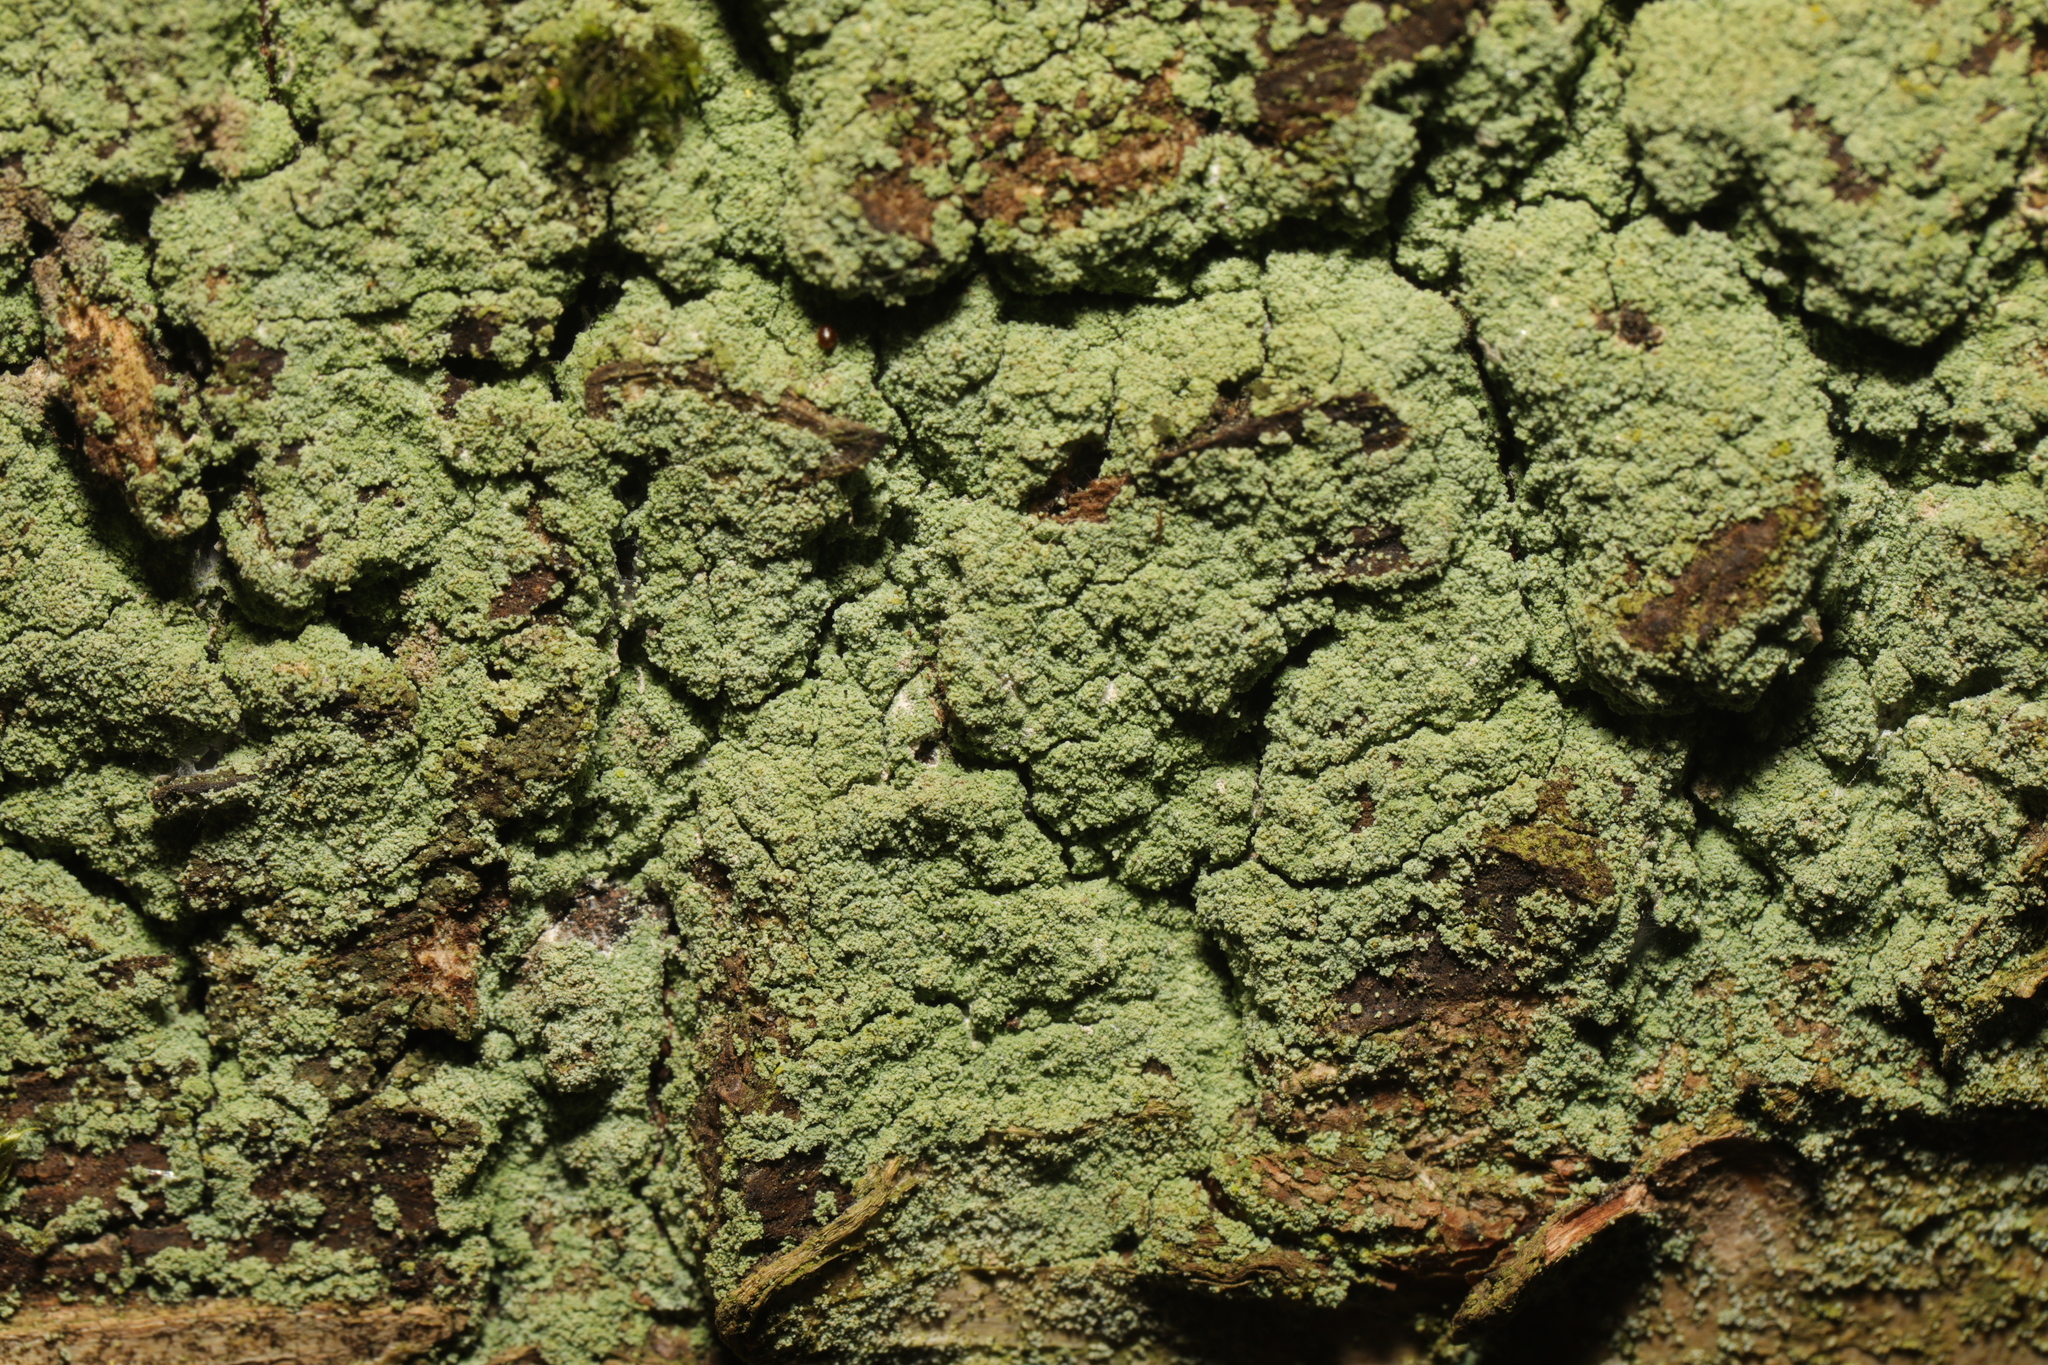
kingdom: Fungi
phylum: Ascomycota
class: Lecanoromycetes
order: Lecanorales
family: Stereocaulaceae
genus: Lepraria
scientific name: Lepraria
